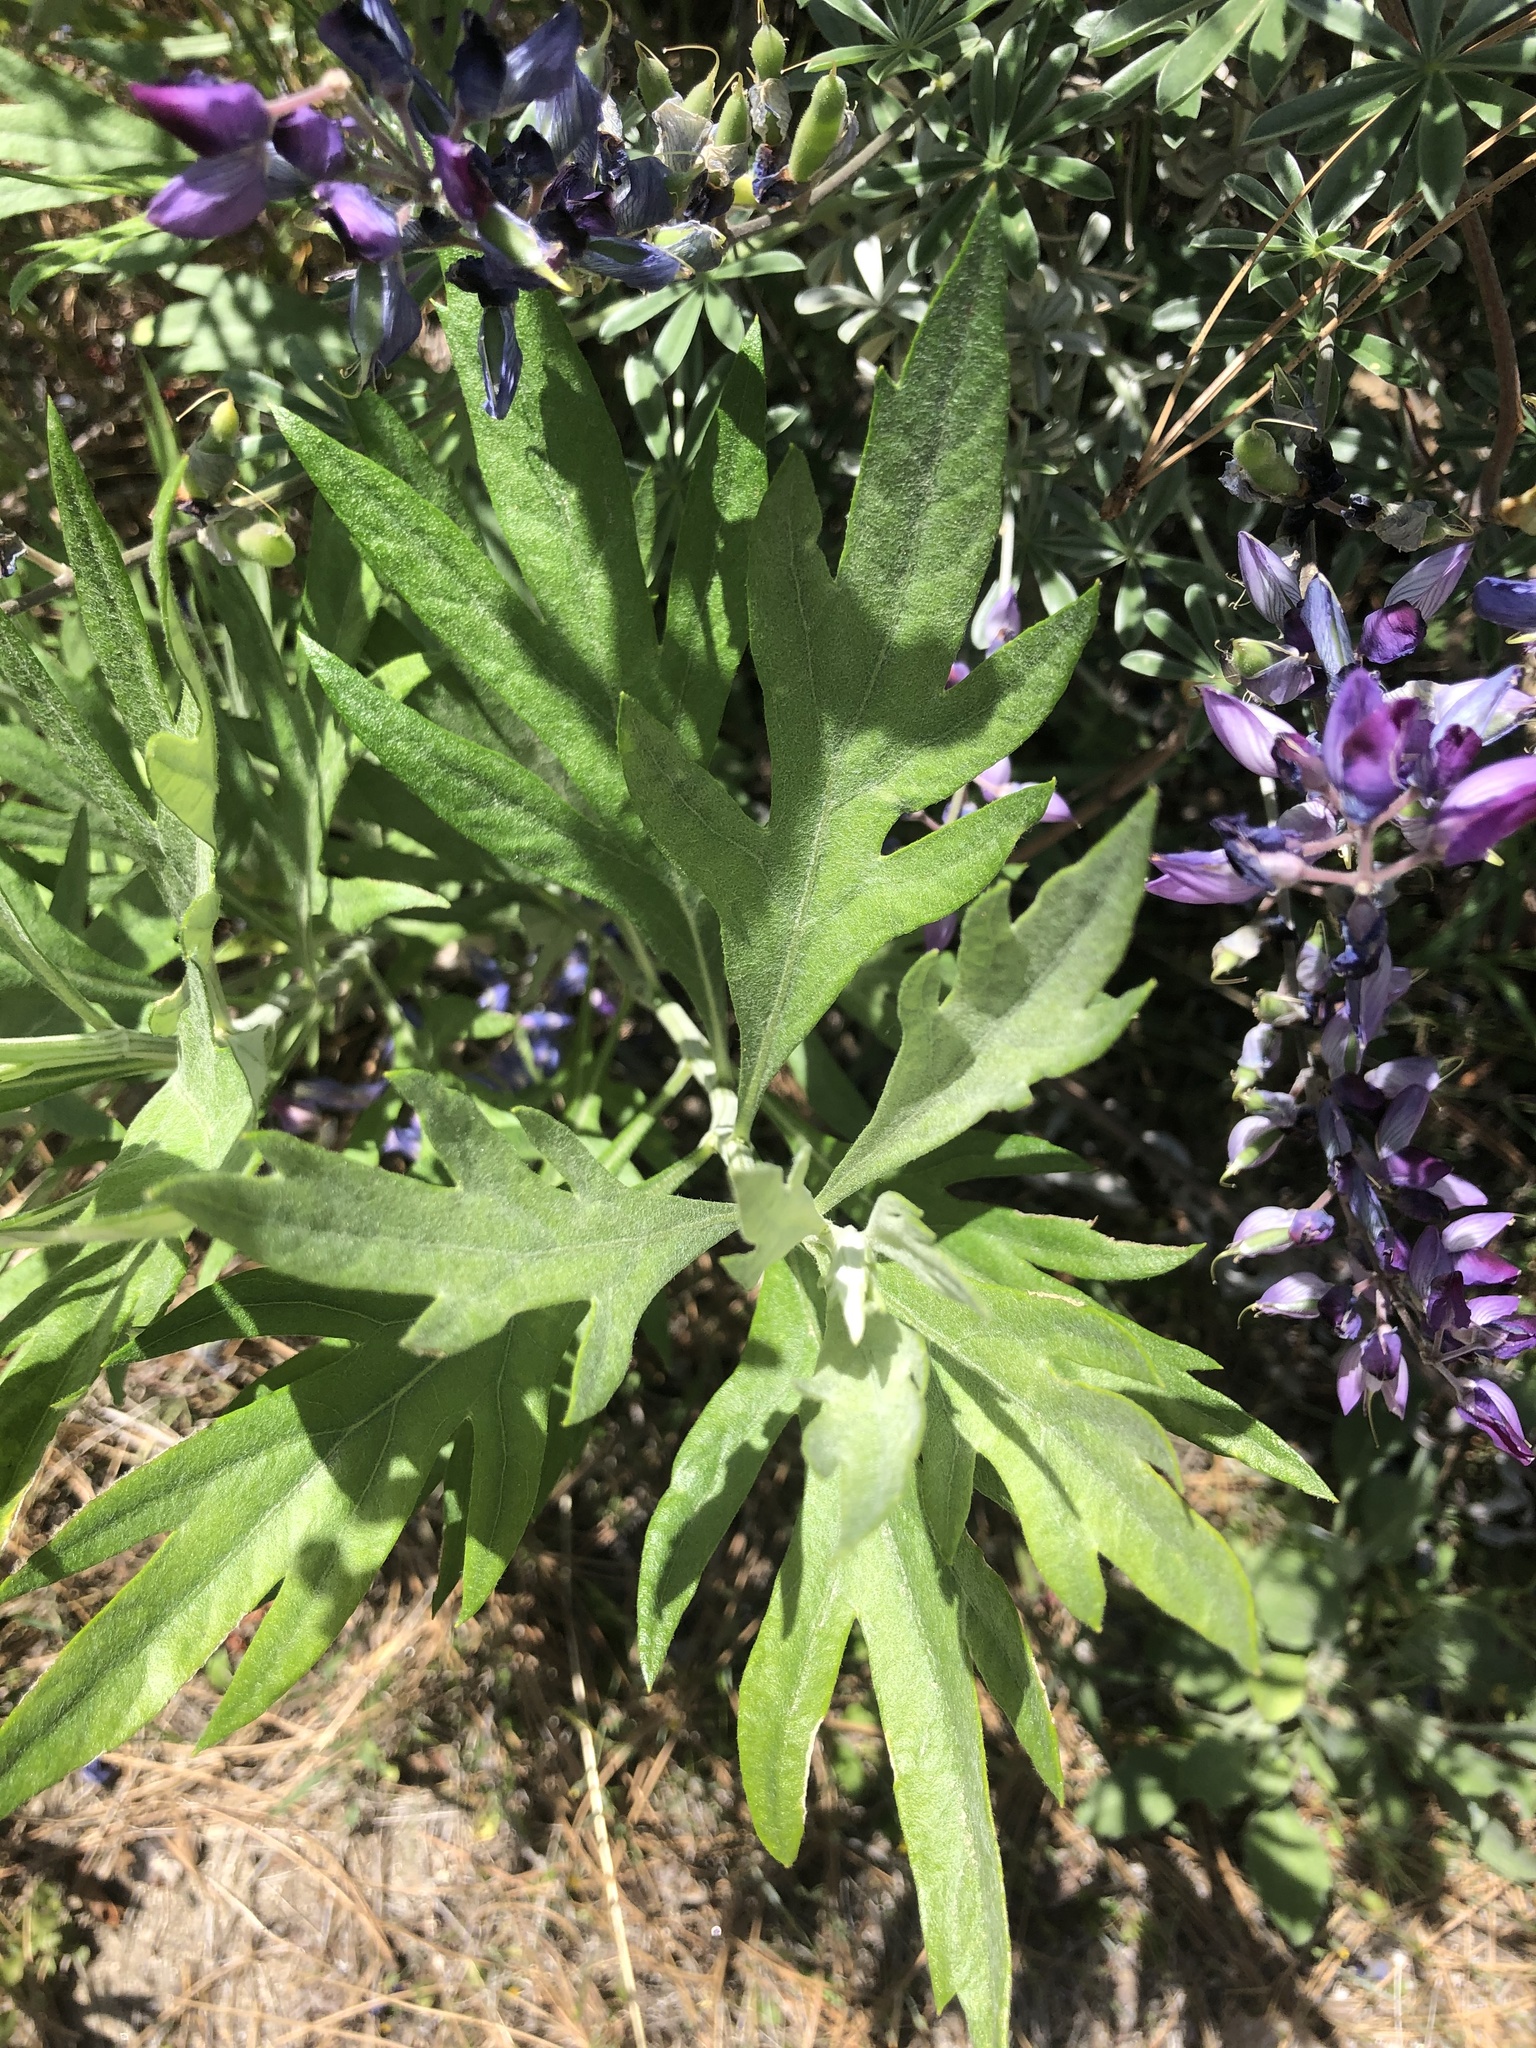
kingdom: Plantae
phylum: Tracheophyta
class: Magnoliopsida
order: Asterales
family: Asteraceae
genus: Artemisia
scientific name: Artemisia douglasiana
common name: Northwest mugwort
